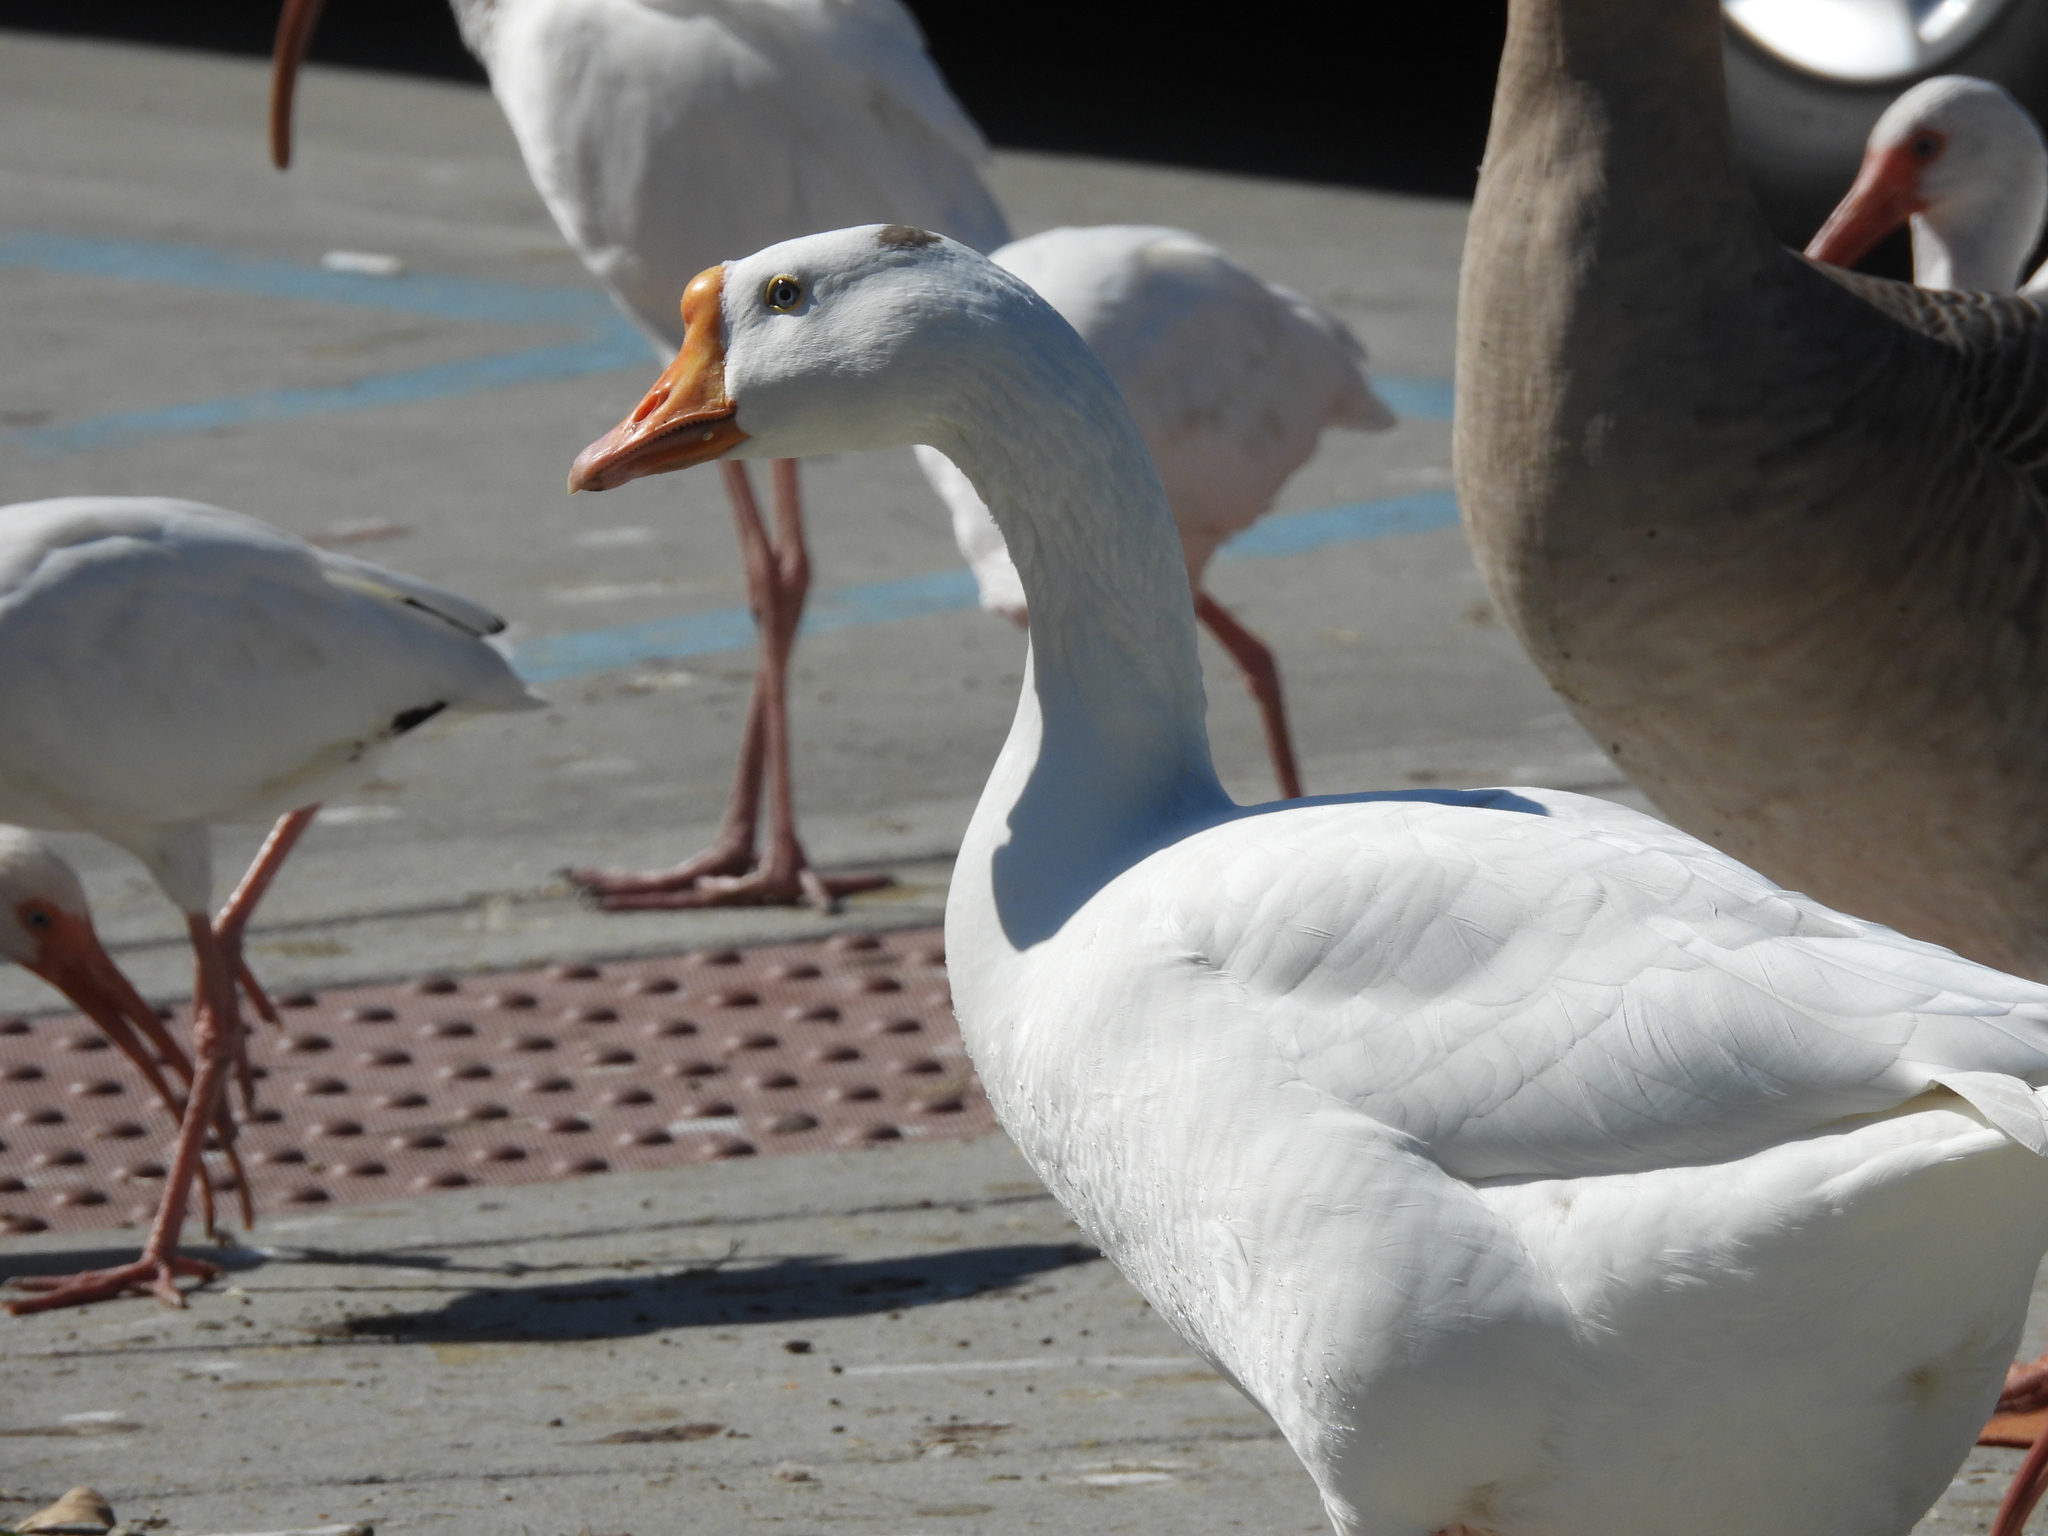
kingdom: Animalia
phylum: Chordata
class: Aves
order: Anseriformes
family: Anatidae
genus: Anser
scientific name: Anser
